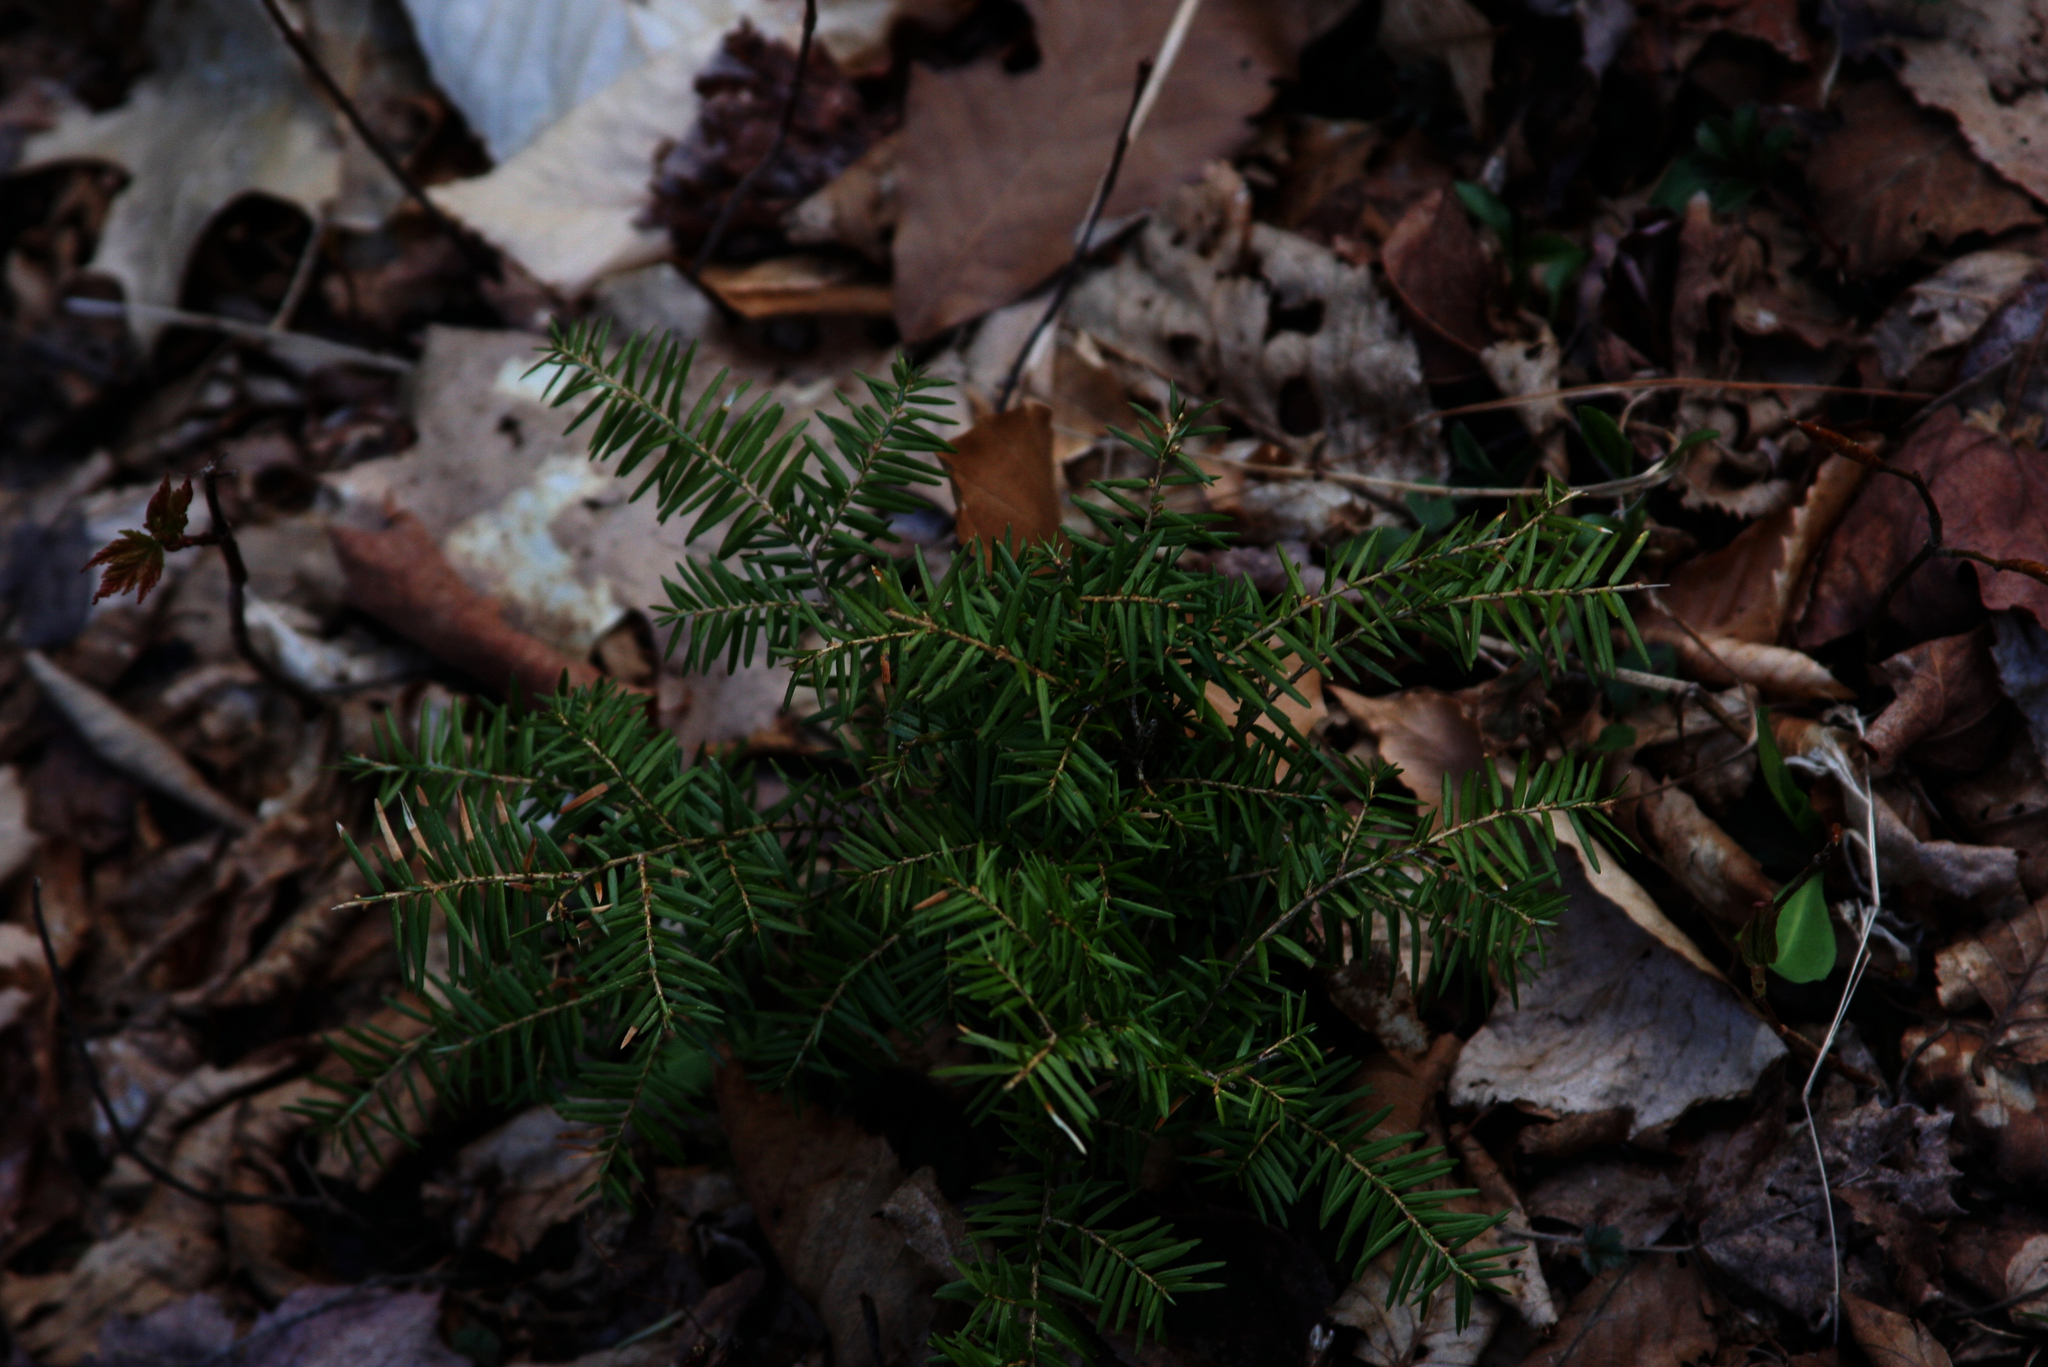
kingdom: Plantae
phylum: Tracheophyta
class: Pinopsida
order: Pinales
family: Pinaceae
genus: Tsuga
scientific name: Tsuga canadensis
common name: Eastern hemlock
